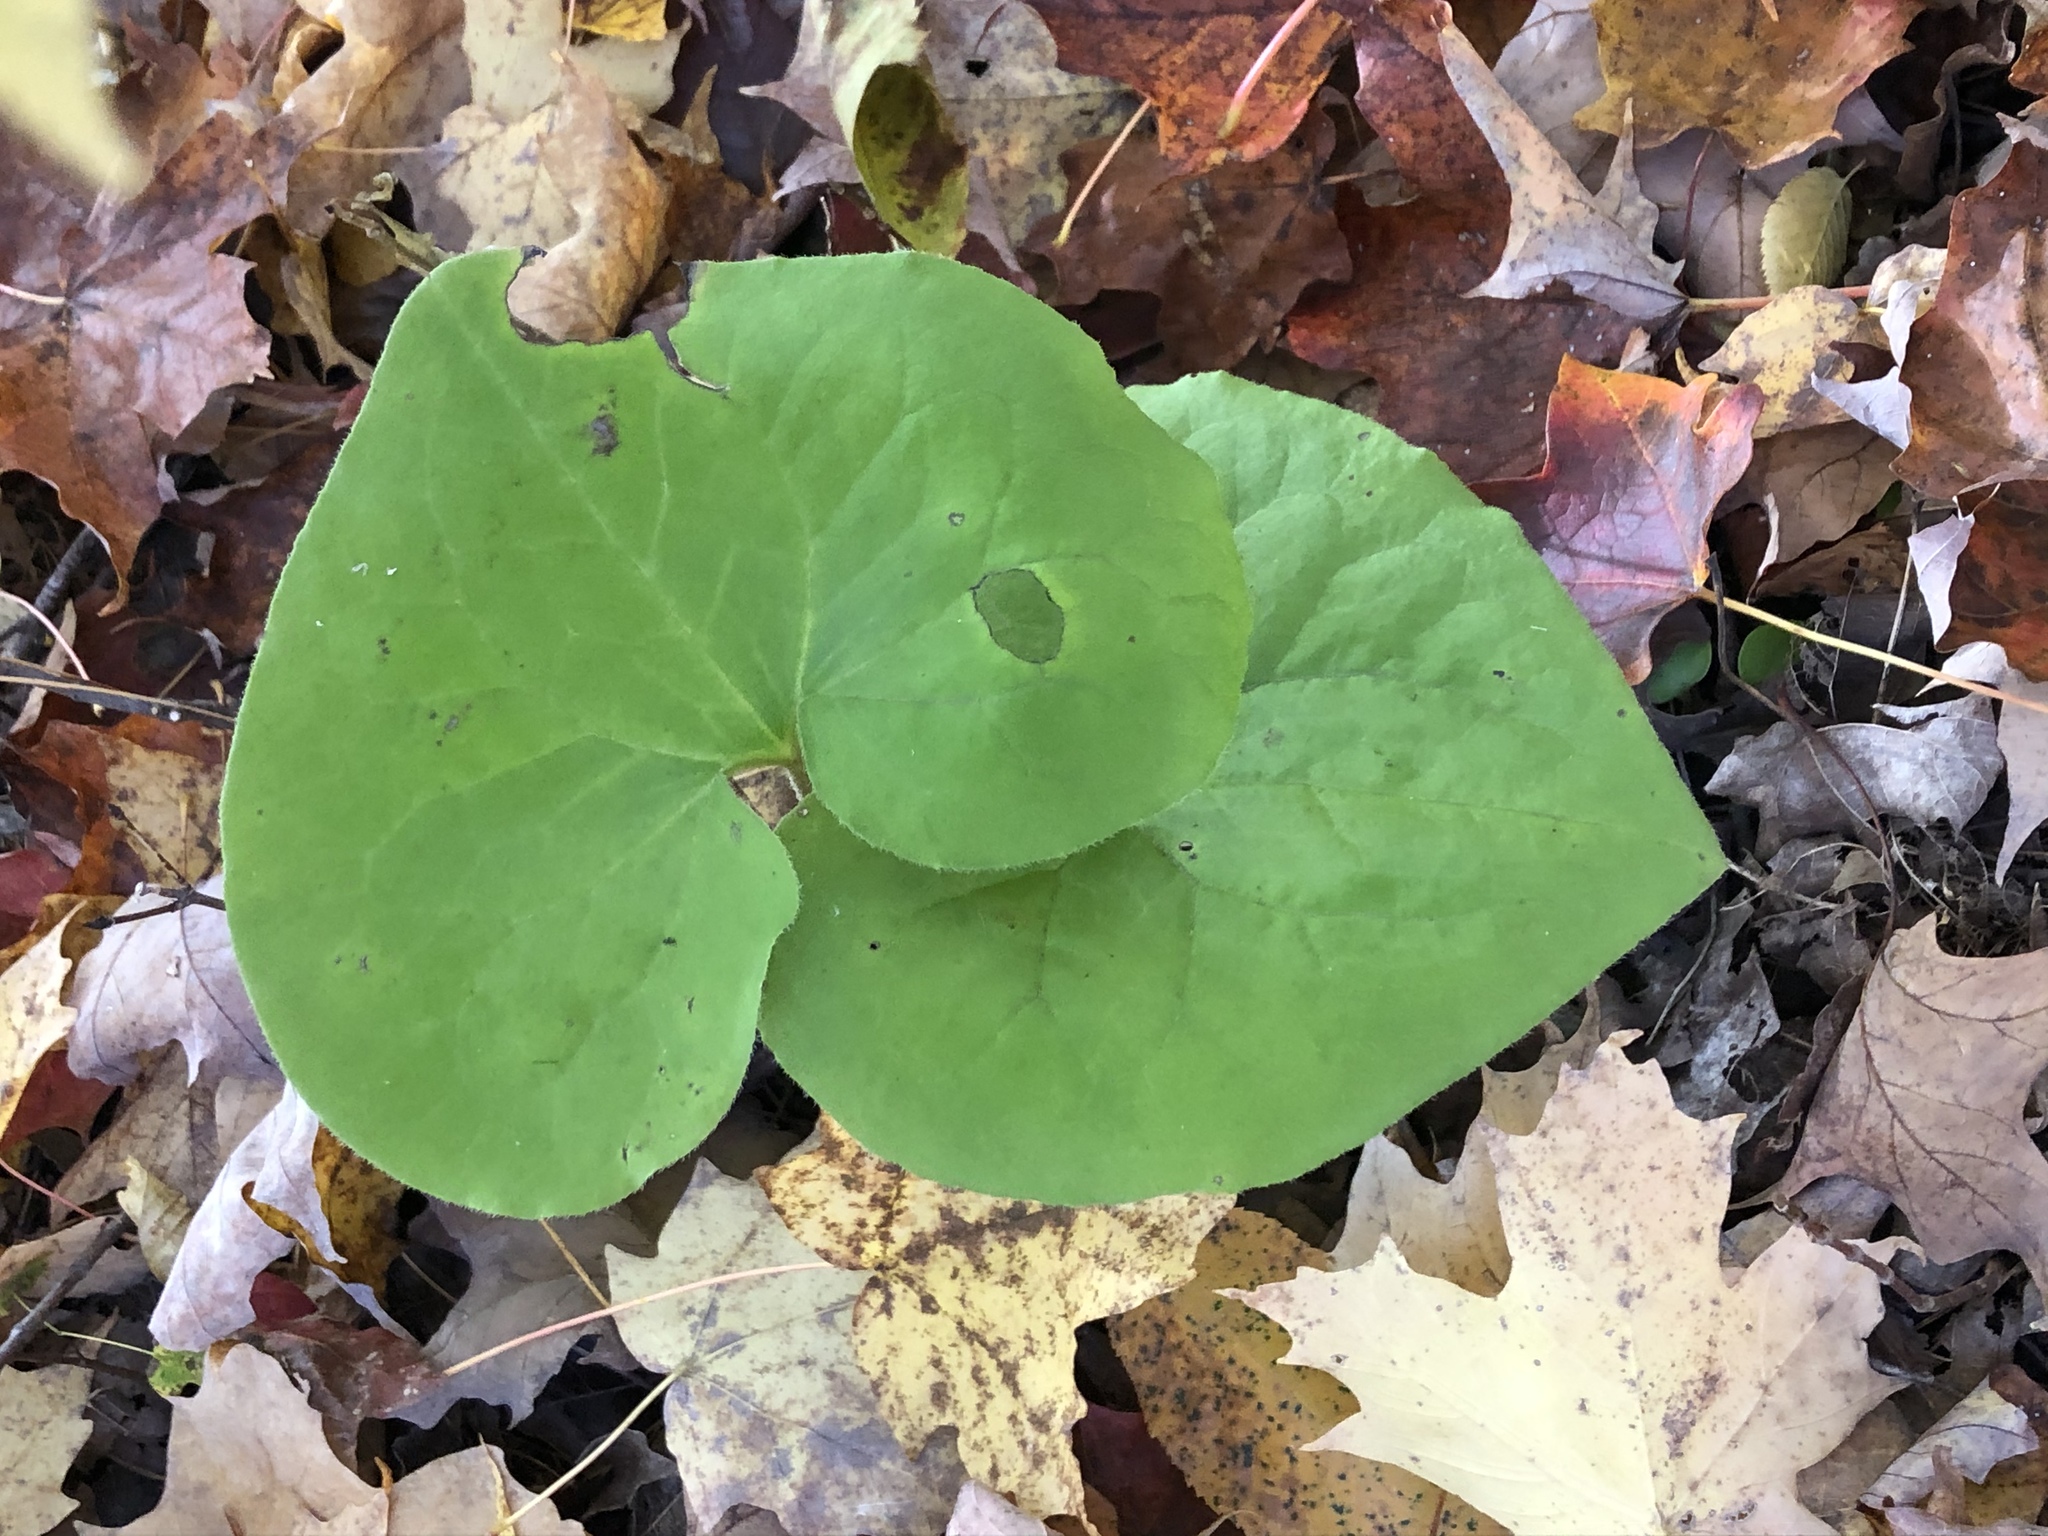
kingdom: Plantae
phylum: Tracheophyta
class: Magnoliopsida
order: Piperales
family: Aristolochiaceae
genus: Asarum
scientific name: Asarum canadense
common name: Wild ginger
